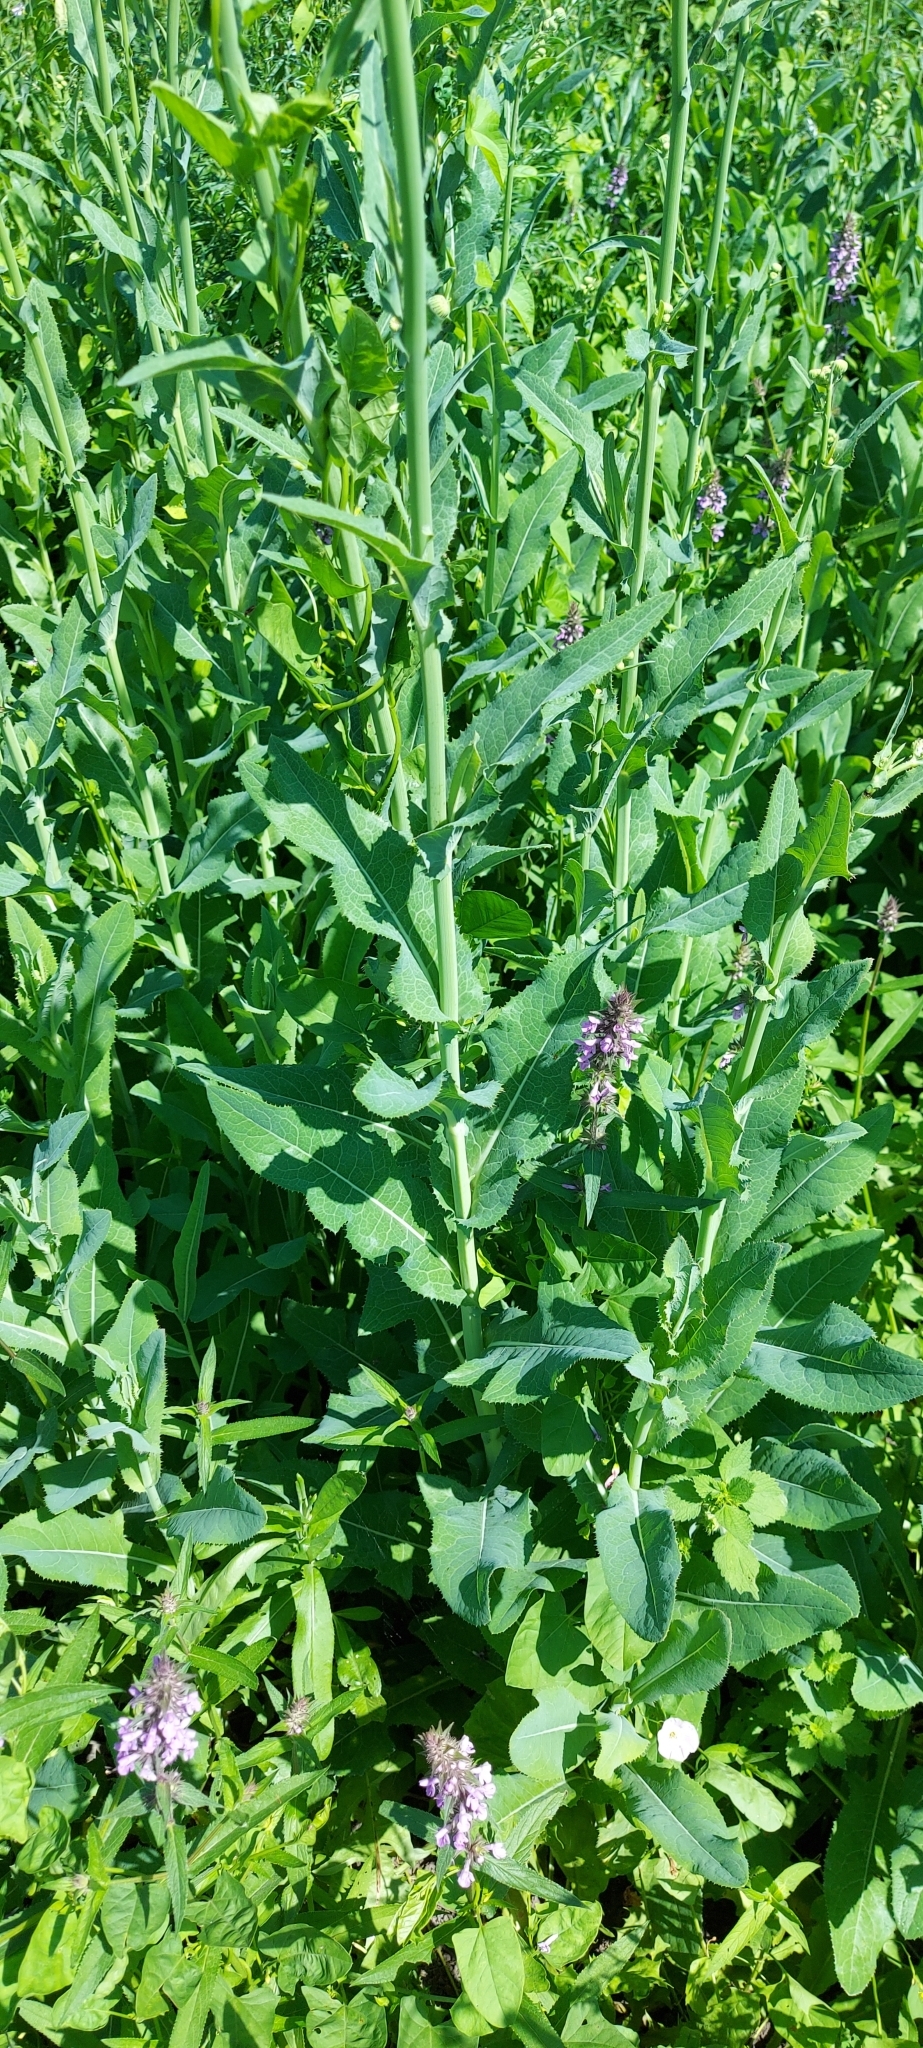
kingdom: Plantae
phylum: Tracheophyta
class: Magnoliopsida
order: Asterales
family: Asteraceae
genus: Sonchus
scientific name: Sonchus arvensis
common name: Perennial sow-thistle
